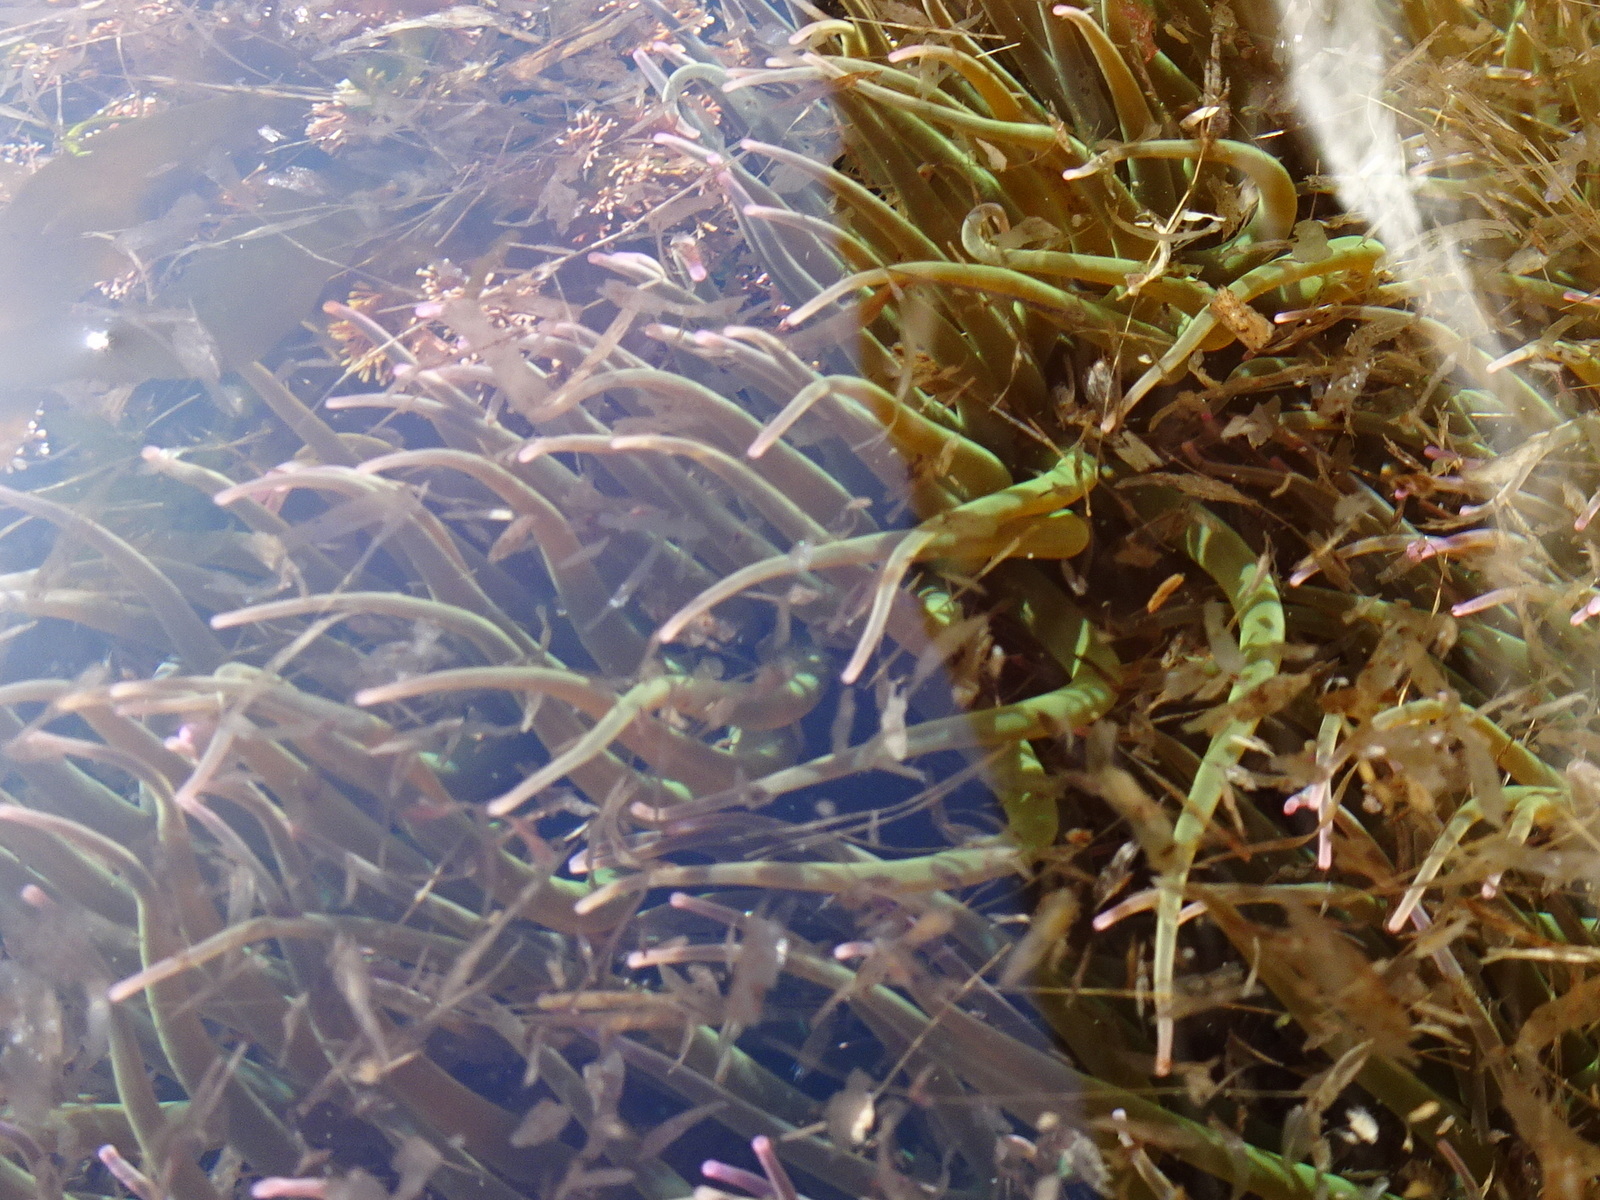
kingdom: Animalia
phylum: Cnidaria
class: Anthozoa
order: Actiniaria
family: Actiniidae
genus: Anemonia
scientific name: Anemonia viridis
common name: Snakelocks anemone
